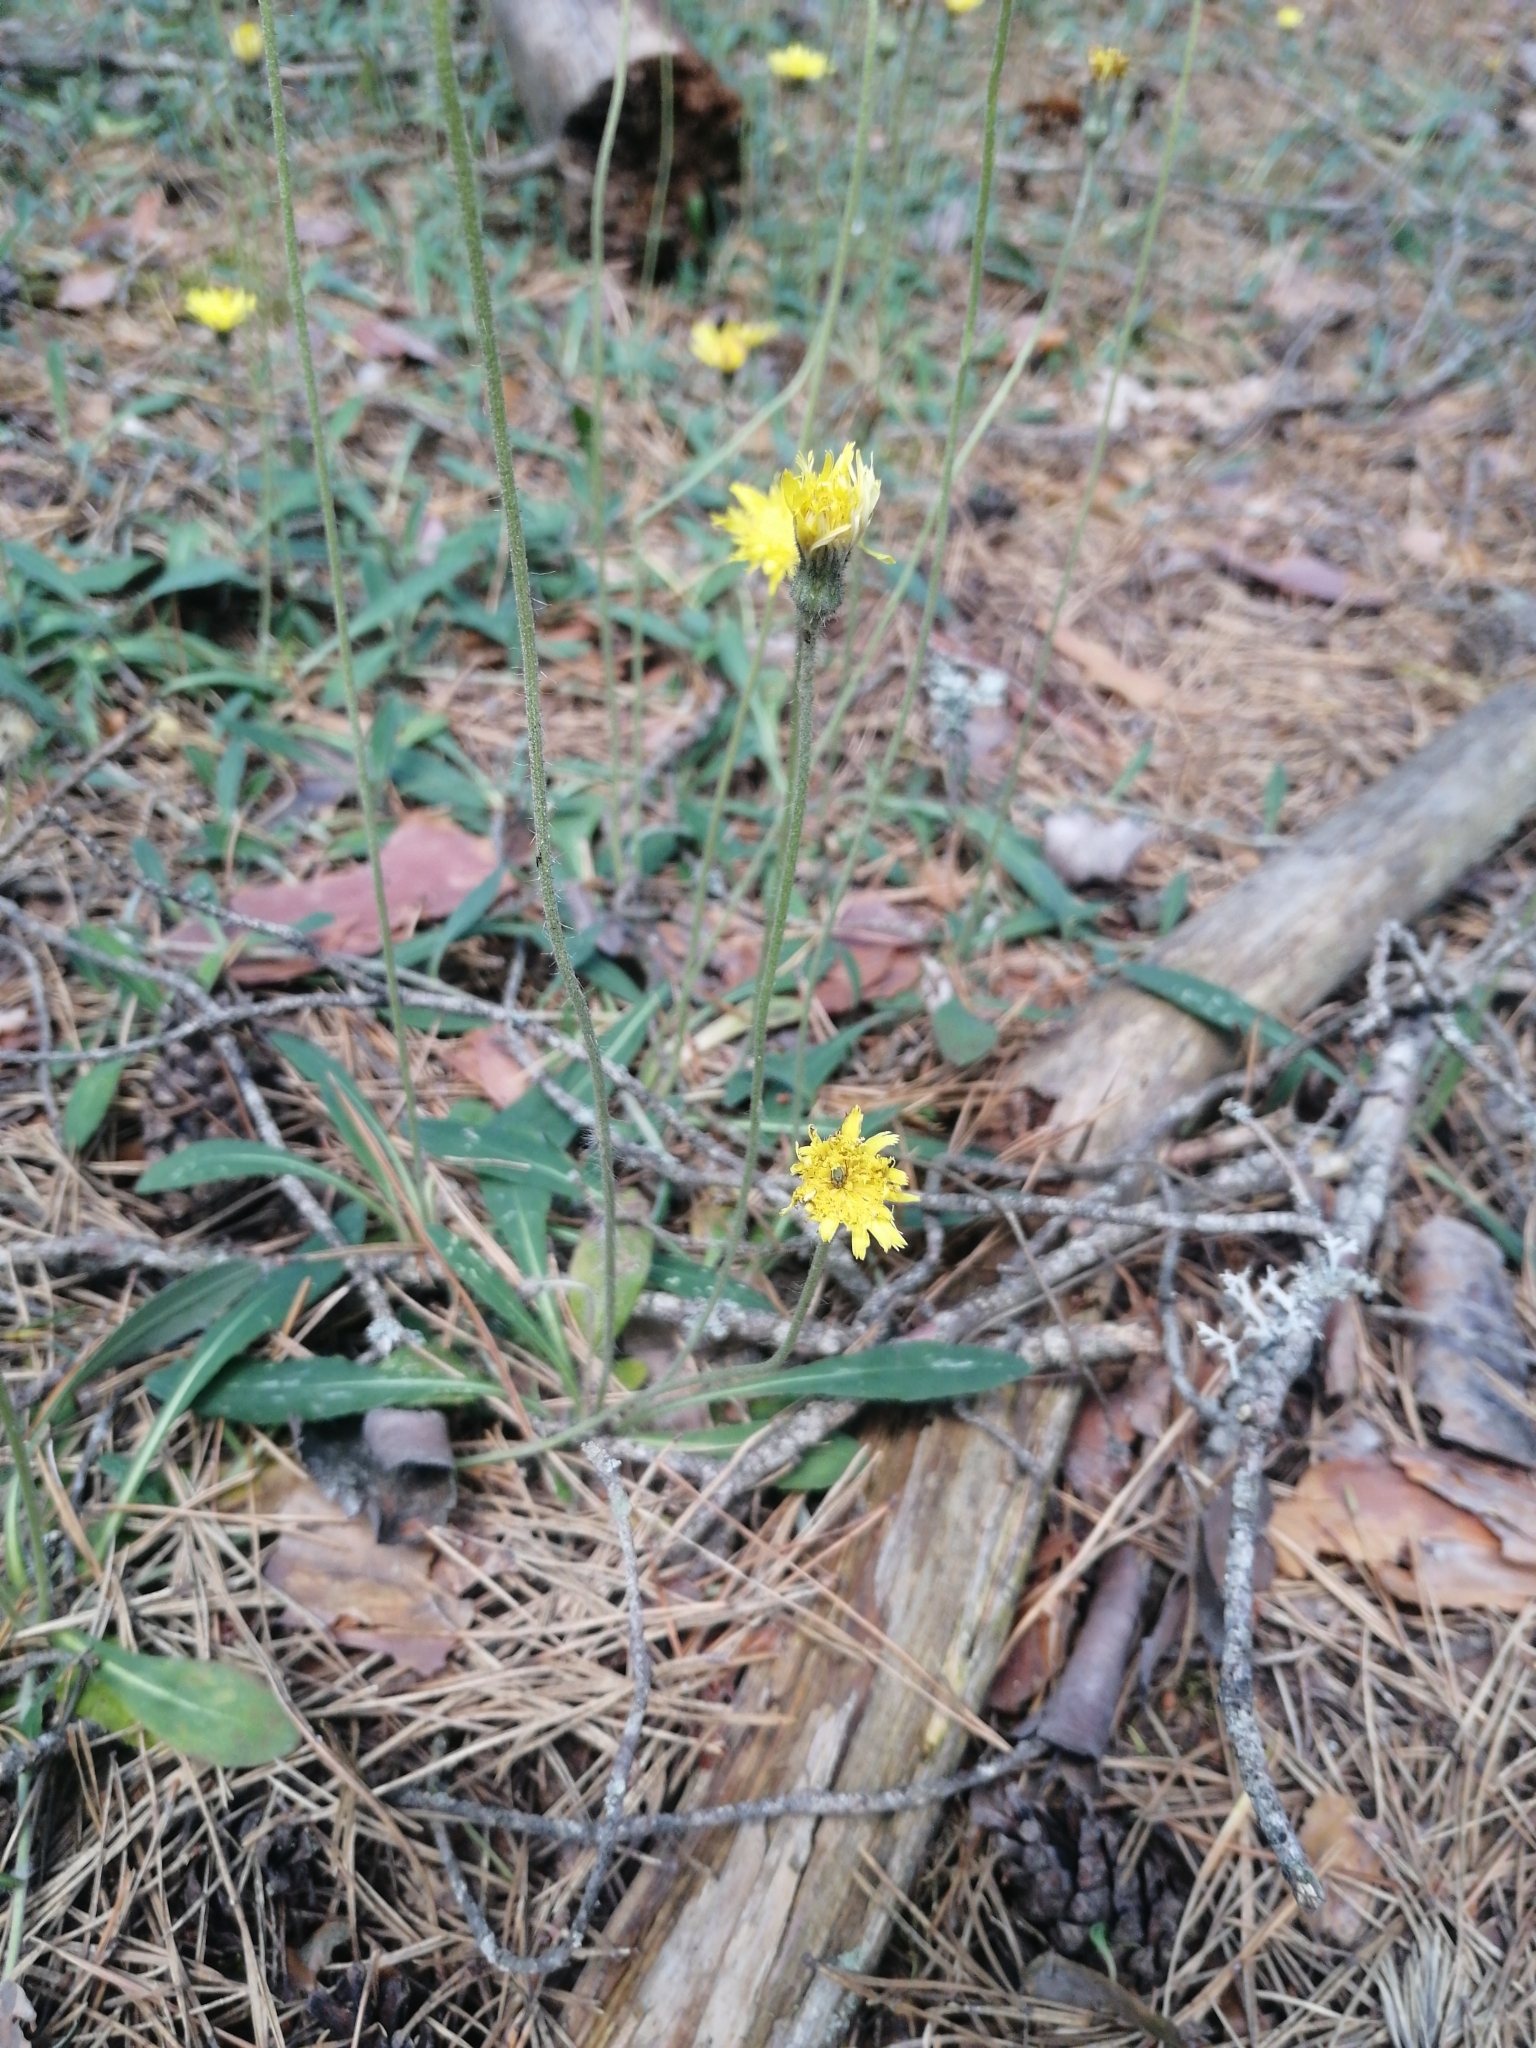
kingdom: Plantae
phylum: Tracheophyta
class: Magnoliopsida
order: Asterales
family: Asteraceae
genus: Pilosella
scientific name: Pilosella officinarum
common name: Mouse-ear hawkweed
